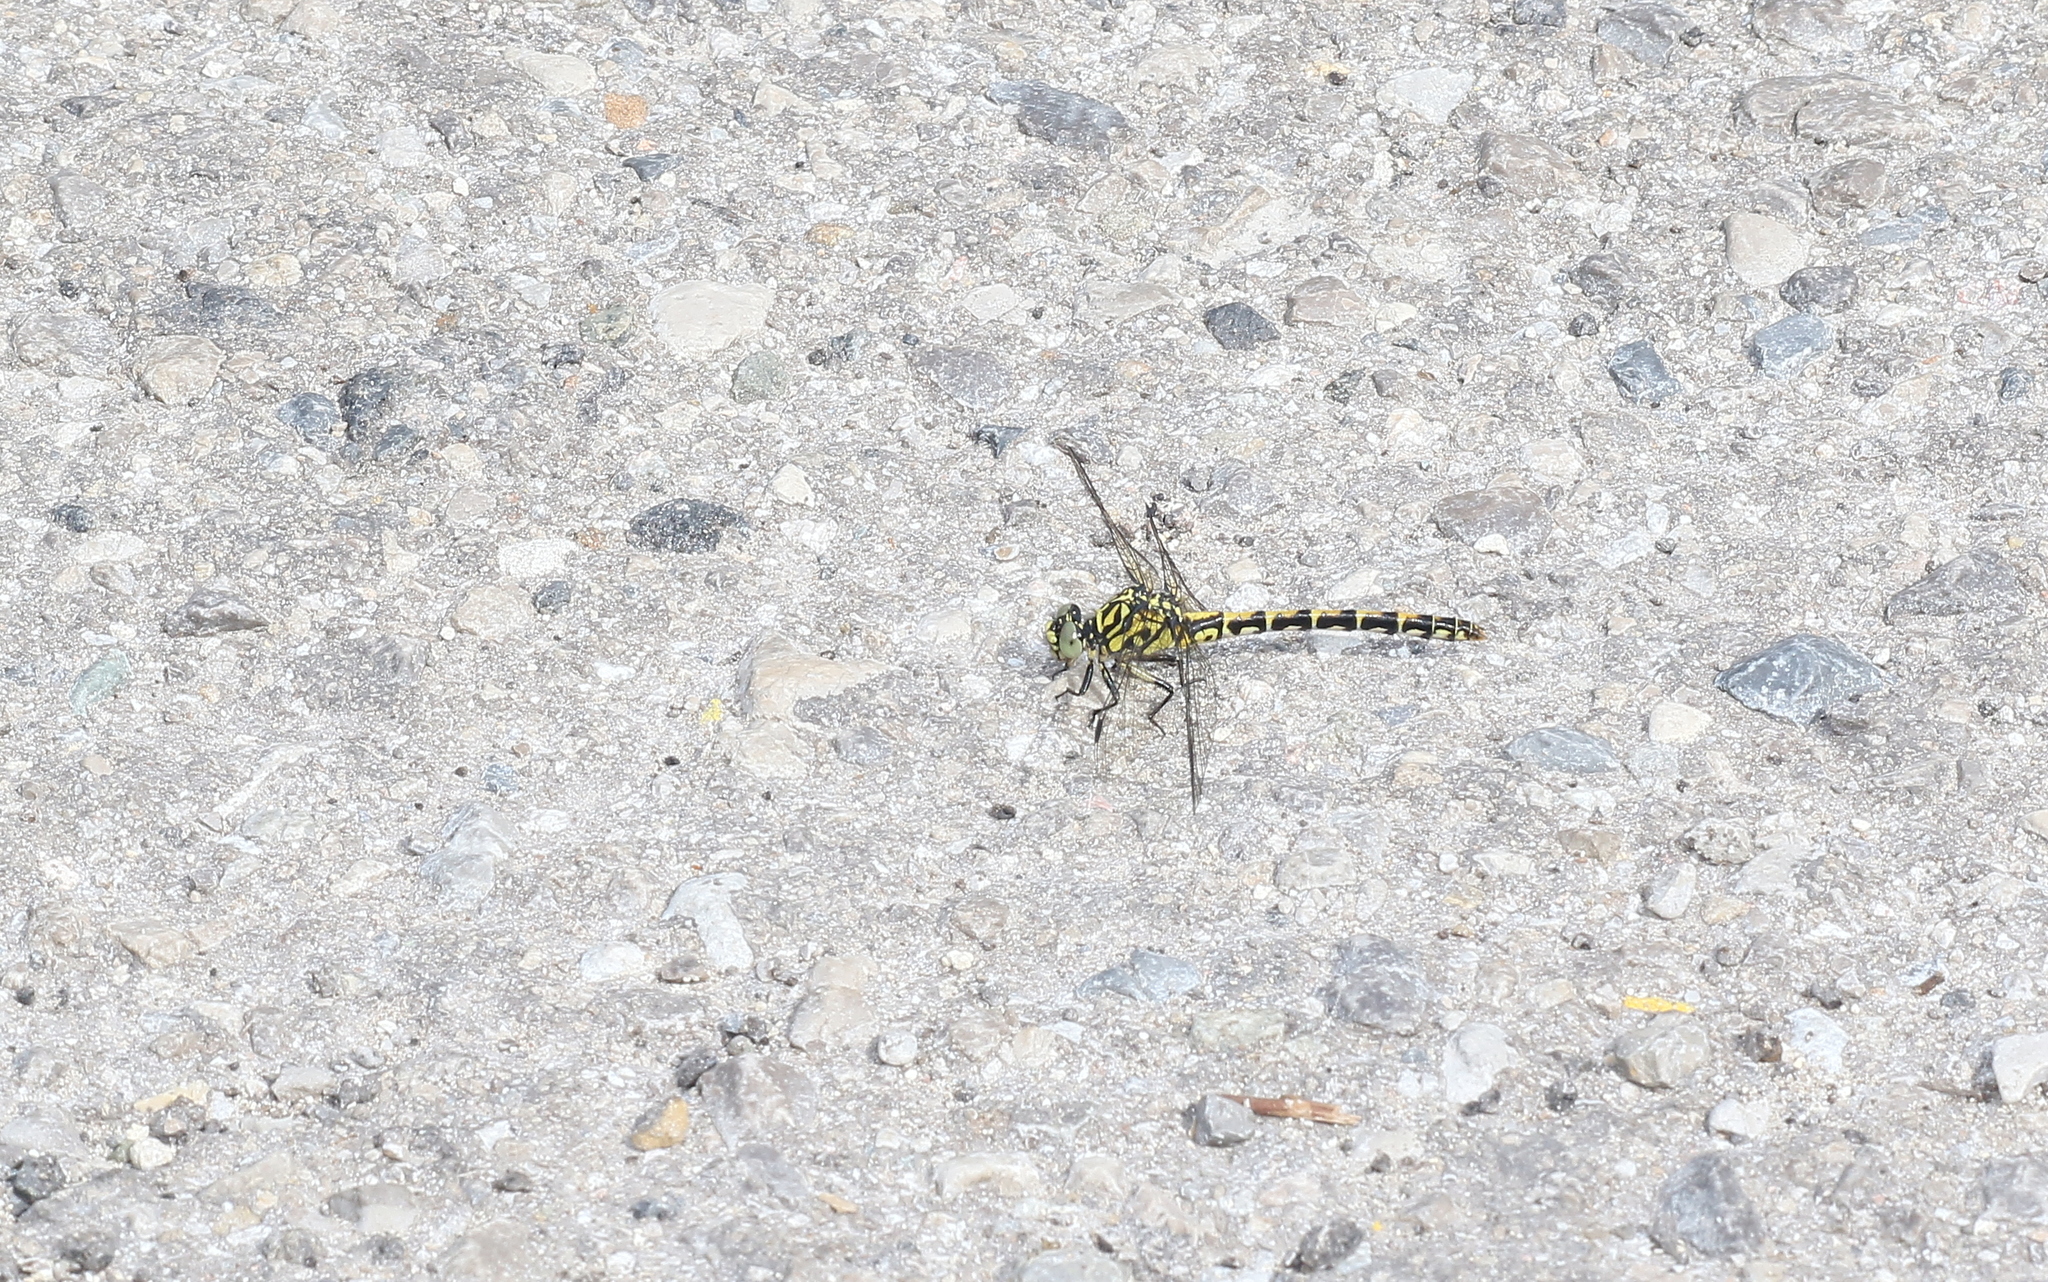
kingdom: Animalia
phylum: Arthropoda
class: Insecta
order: Odonata
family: Gomphidae
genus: Onychogomphus
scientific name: Onychogomphus forcipatus
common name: Small pincertail
